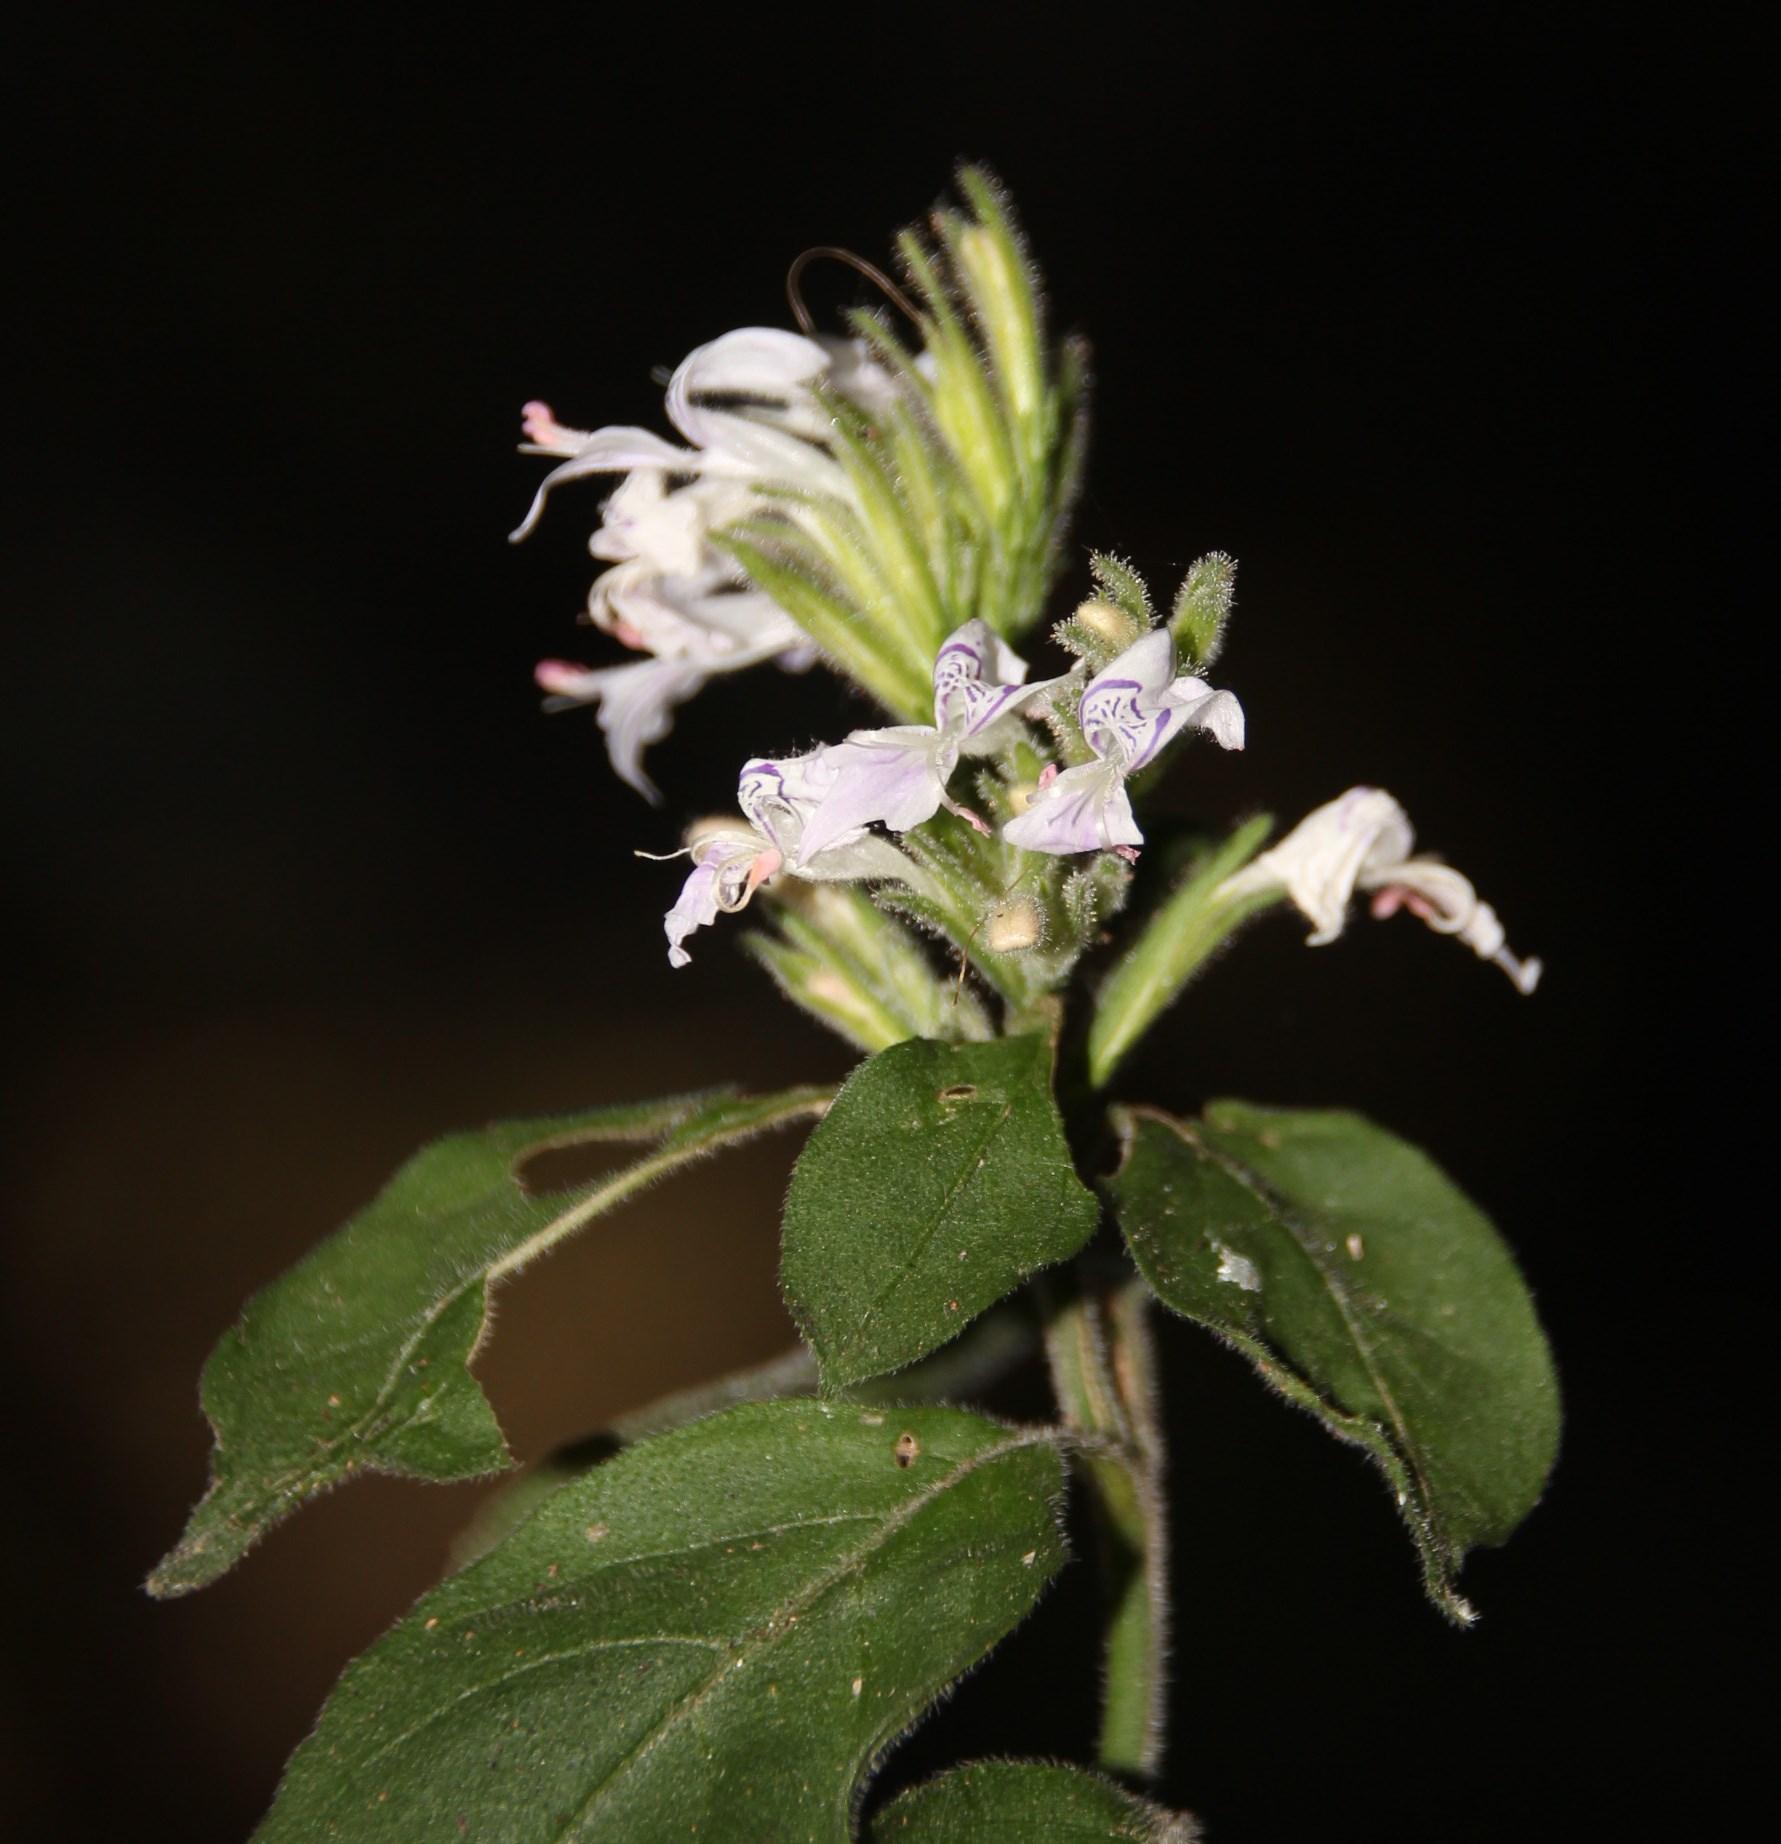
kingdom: Plantae
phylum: Tracheophyta
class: Magnoliopsida
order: Lamiales
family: Acanthaceae
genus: Hypoestes
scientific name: Hypoestes forskaolii
